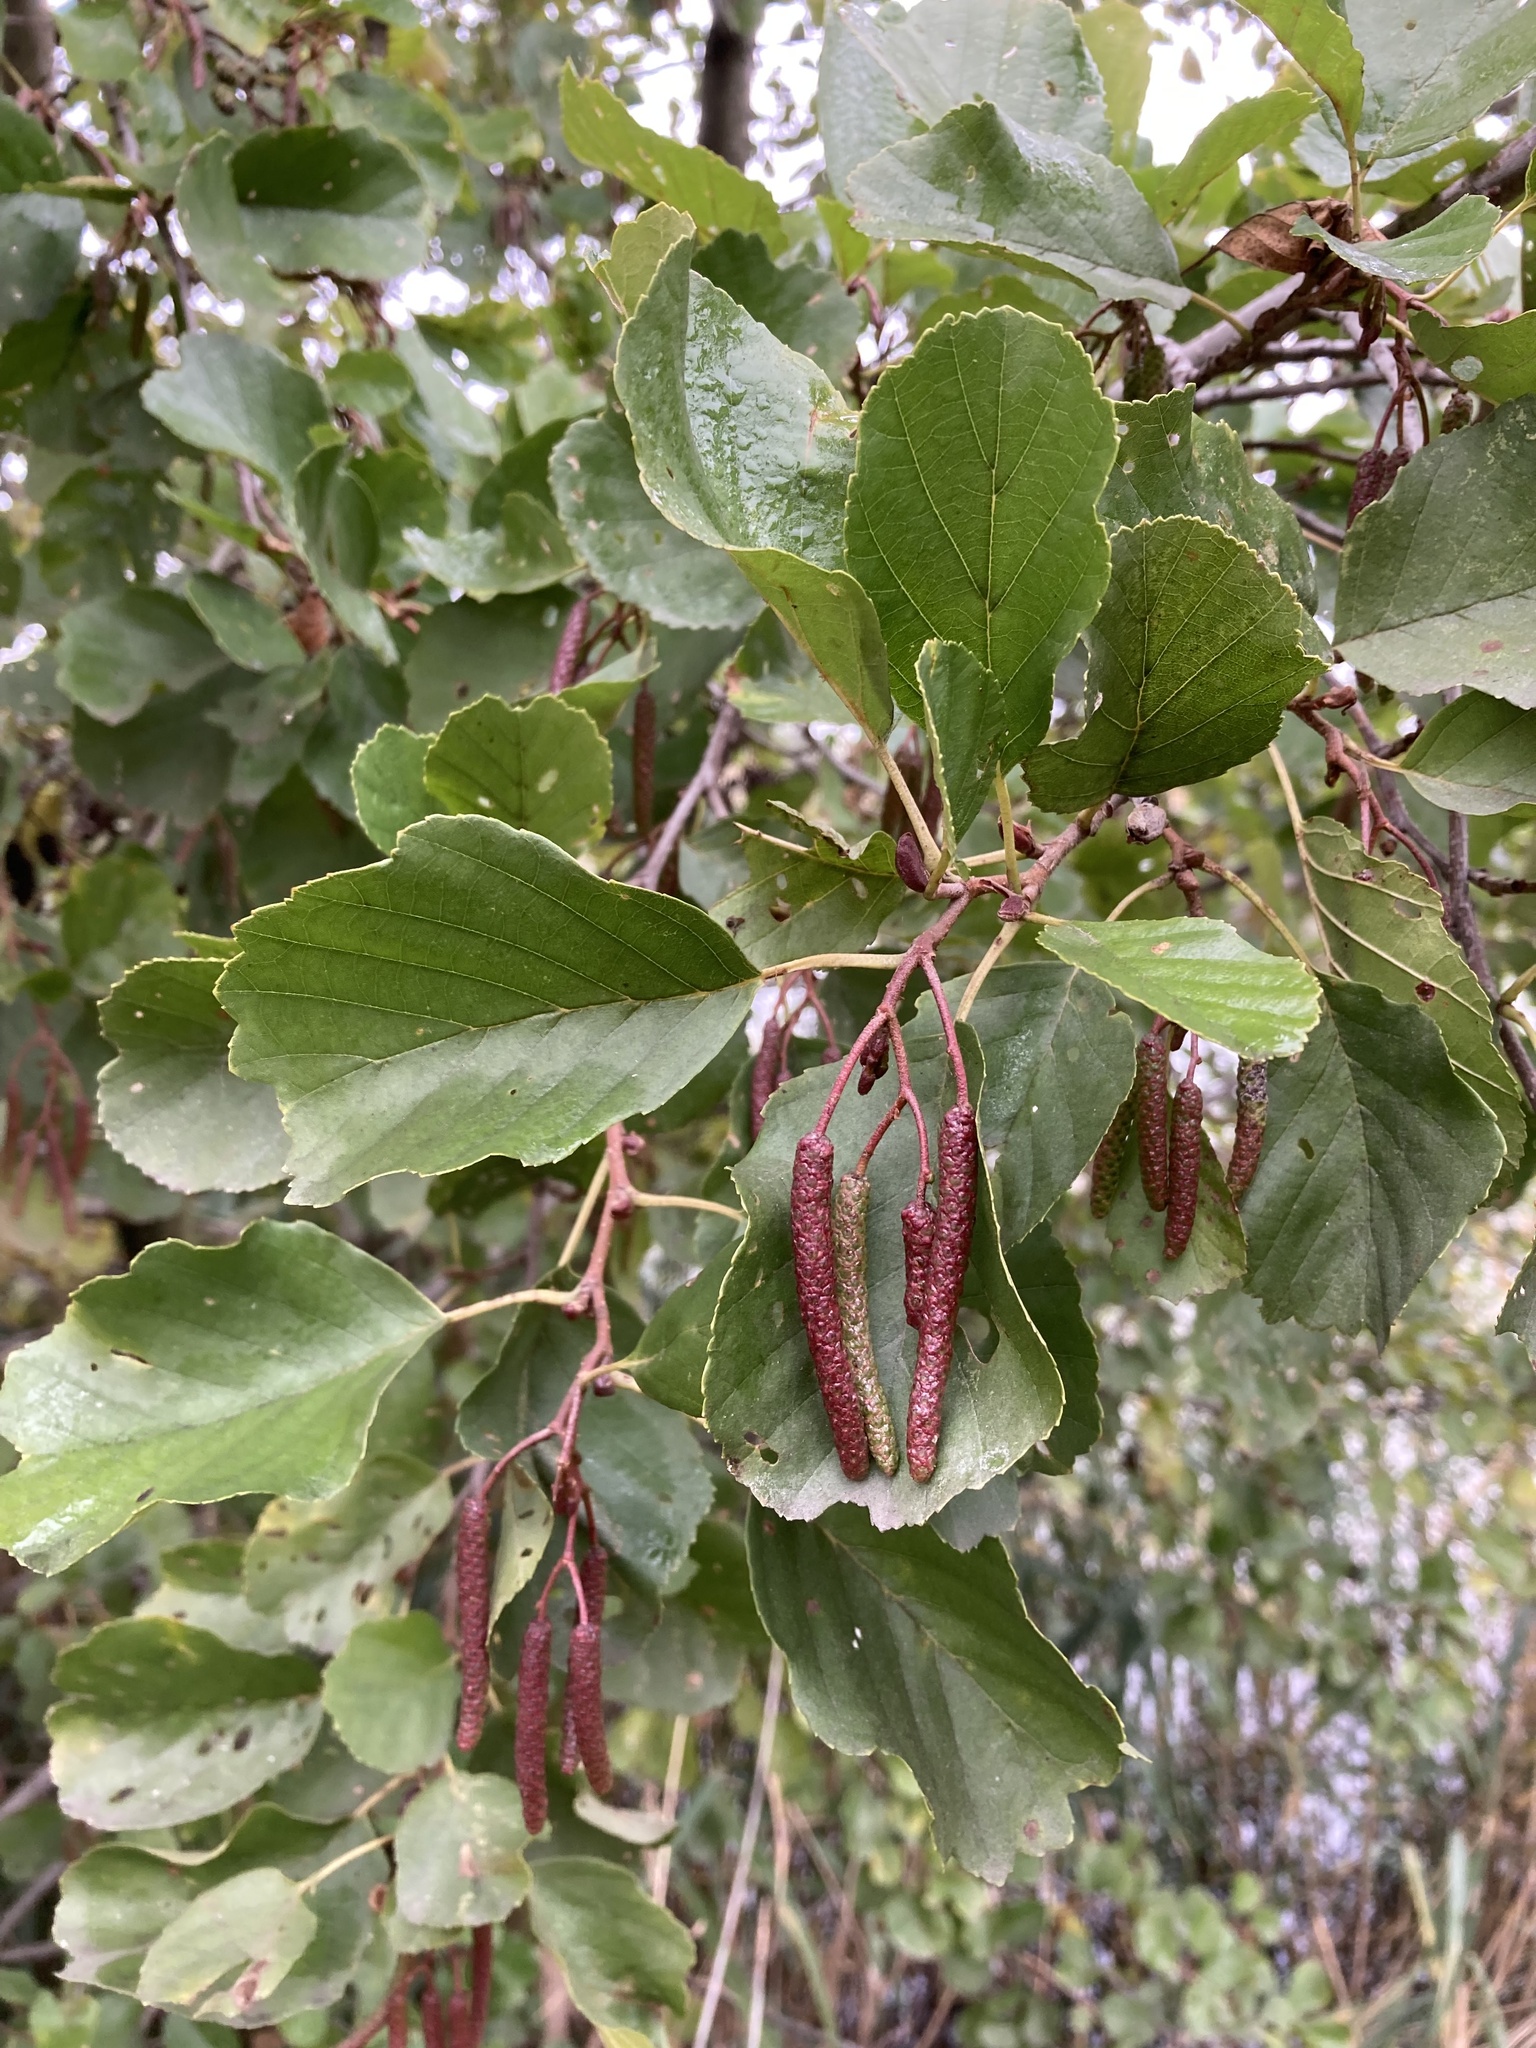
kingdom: Plantae
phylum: Tracheophyta
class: Magnoliopsida
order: Fagales
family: Betulaceae
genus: Alnus
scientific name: Alnus glutinosa
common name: Black alder
